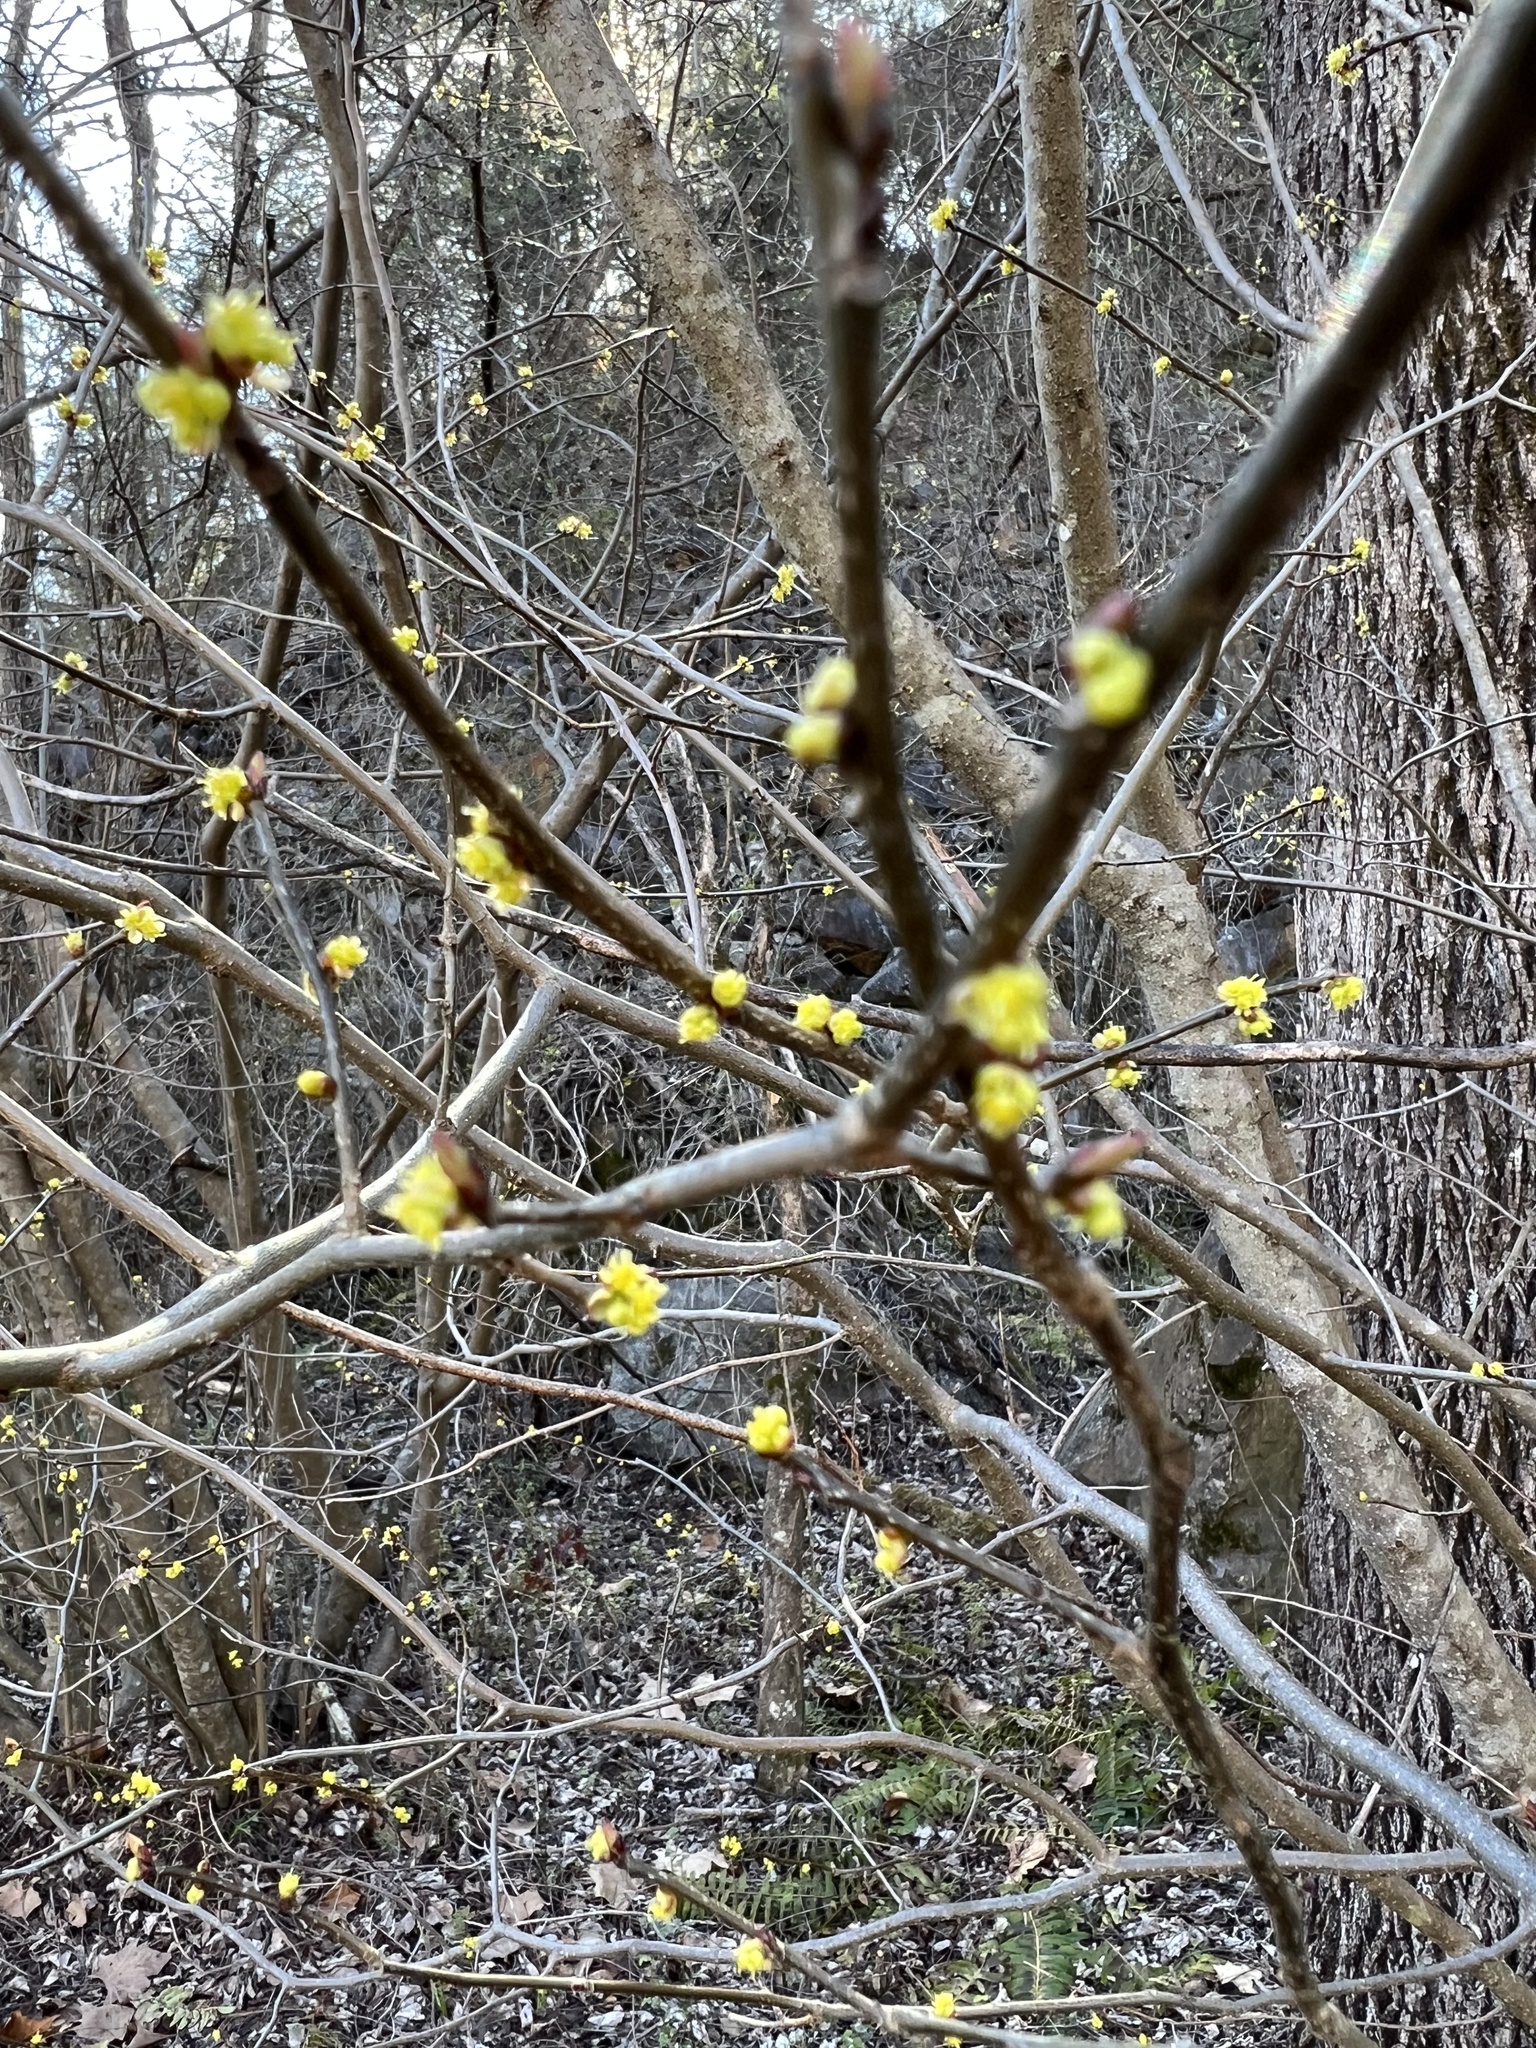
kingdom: Plantae
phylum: Tracheophyta
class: Magnoliopsida
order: Laurales
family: Lauraceae
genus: Lindera
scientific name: Lindera benzoin
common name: Spicebush
